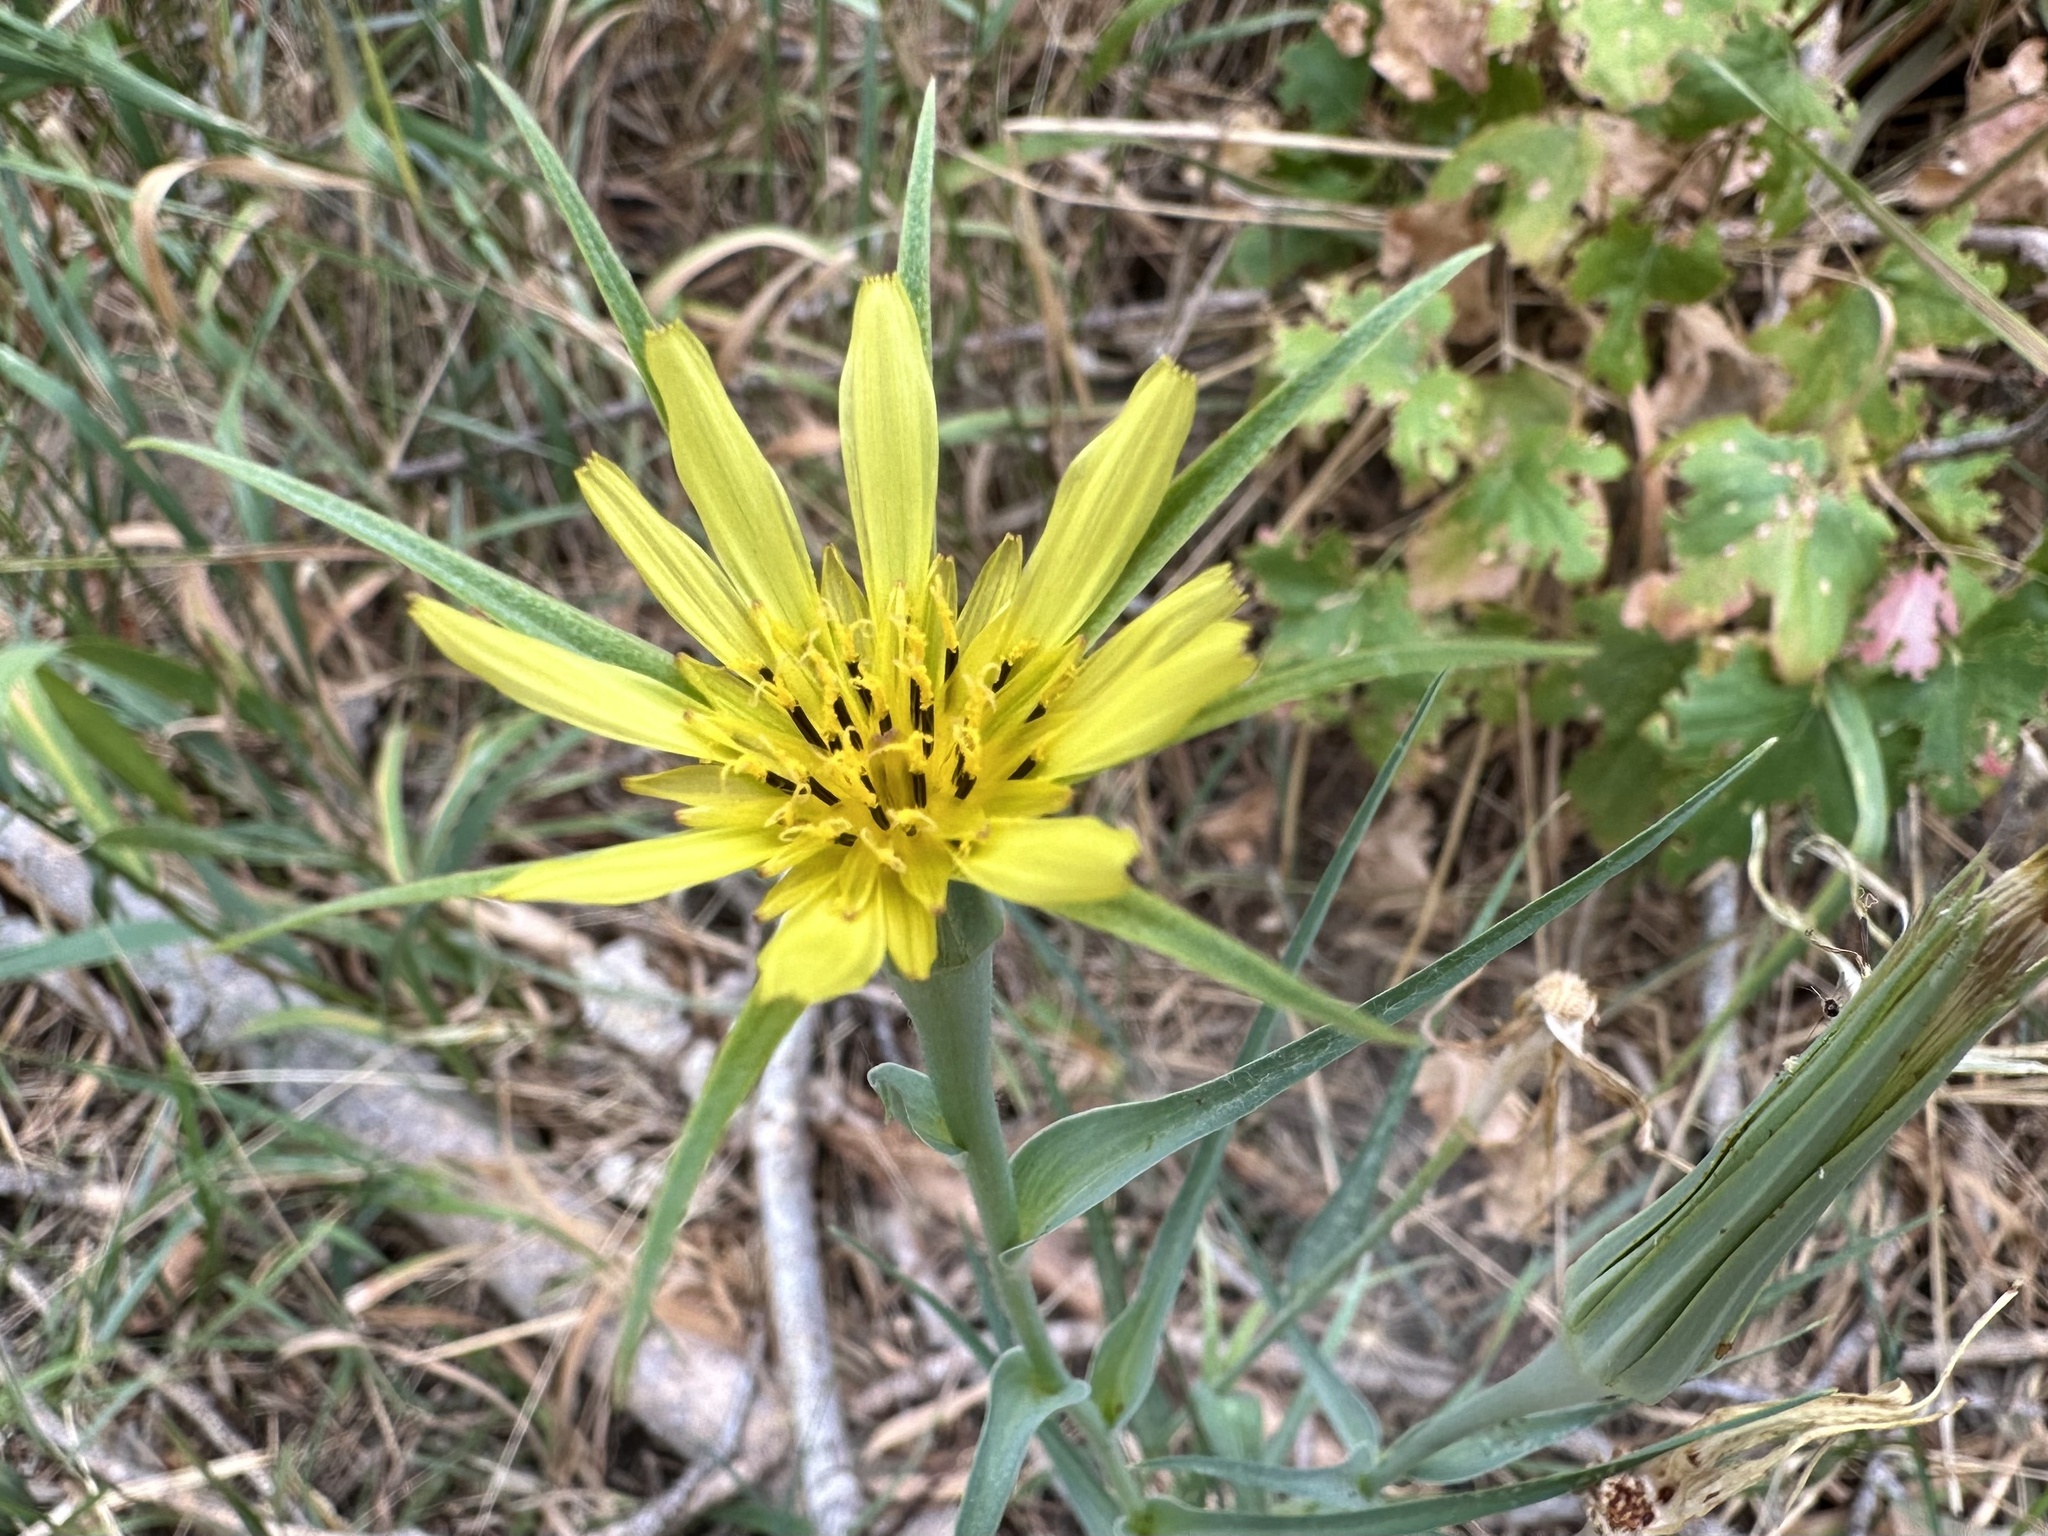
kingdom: Plantae
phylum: Tracheophyta
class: Magnoliopsida
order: Asterales
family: Asteraceae
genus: Tragopogon
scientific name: Tragopogon dubius
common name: Yellow salsify
